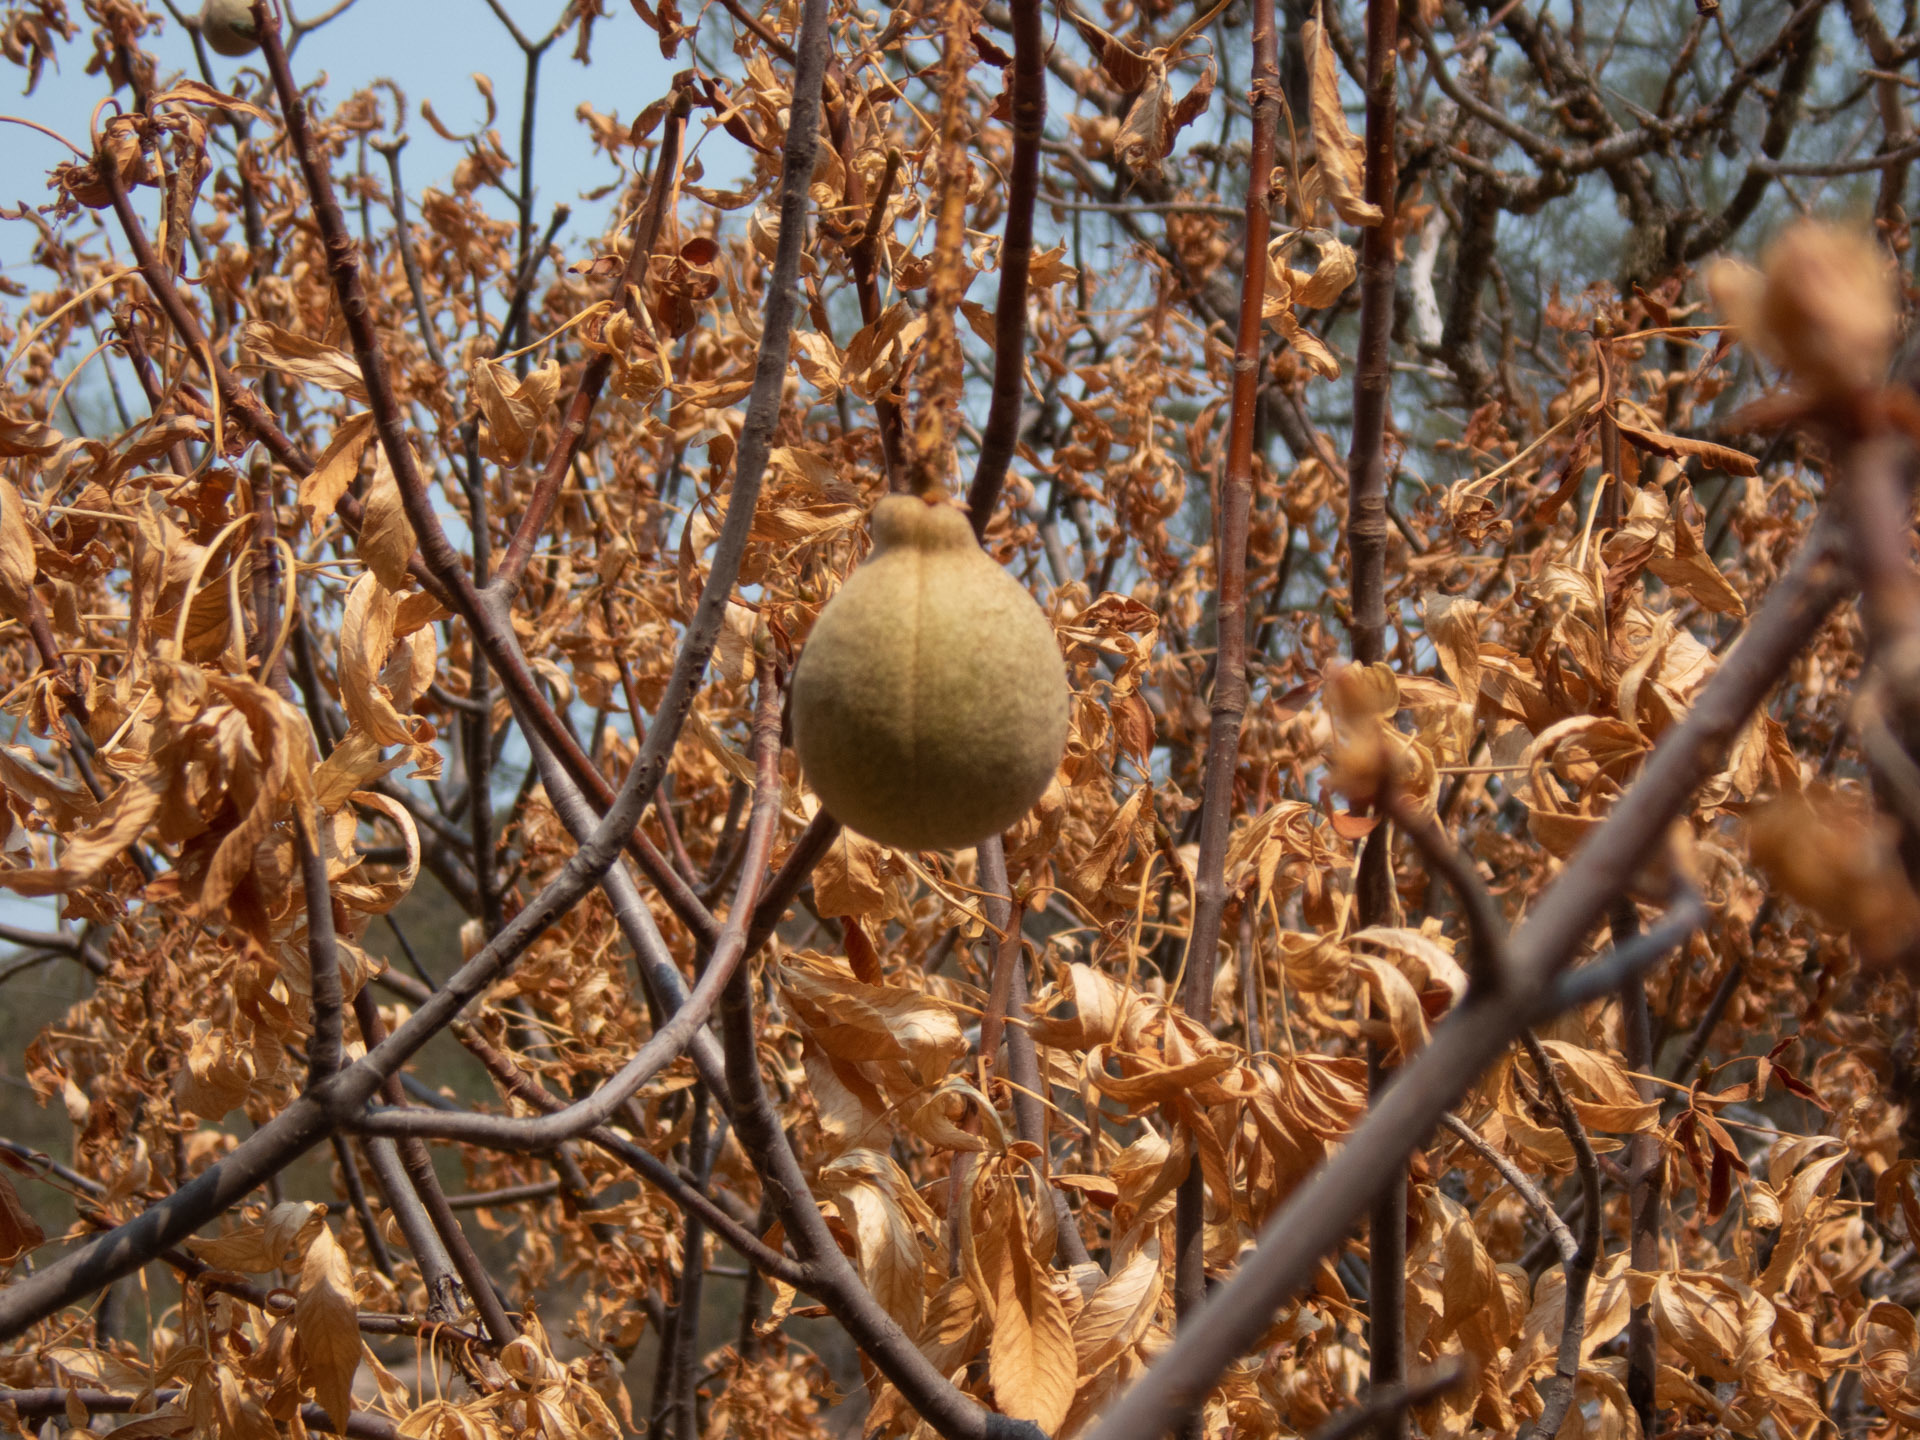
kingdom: Plantae
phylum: Tracheophyta
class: Magnoliopsida
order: Sapindales
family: Sapindaceae
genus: Aesculus
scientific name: Aesculus californica
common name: California buckeye
